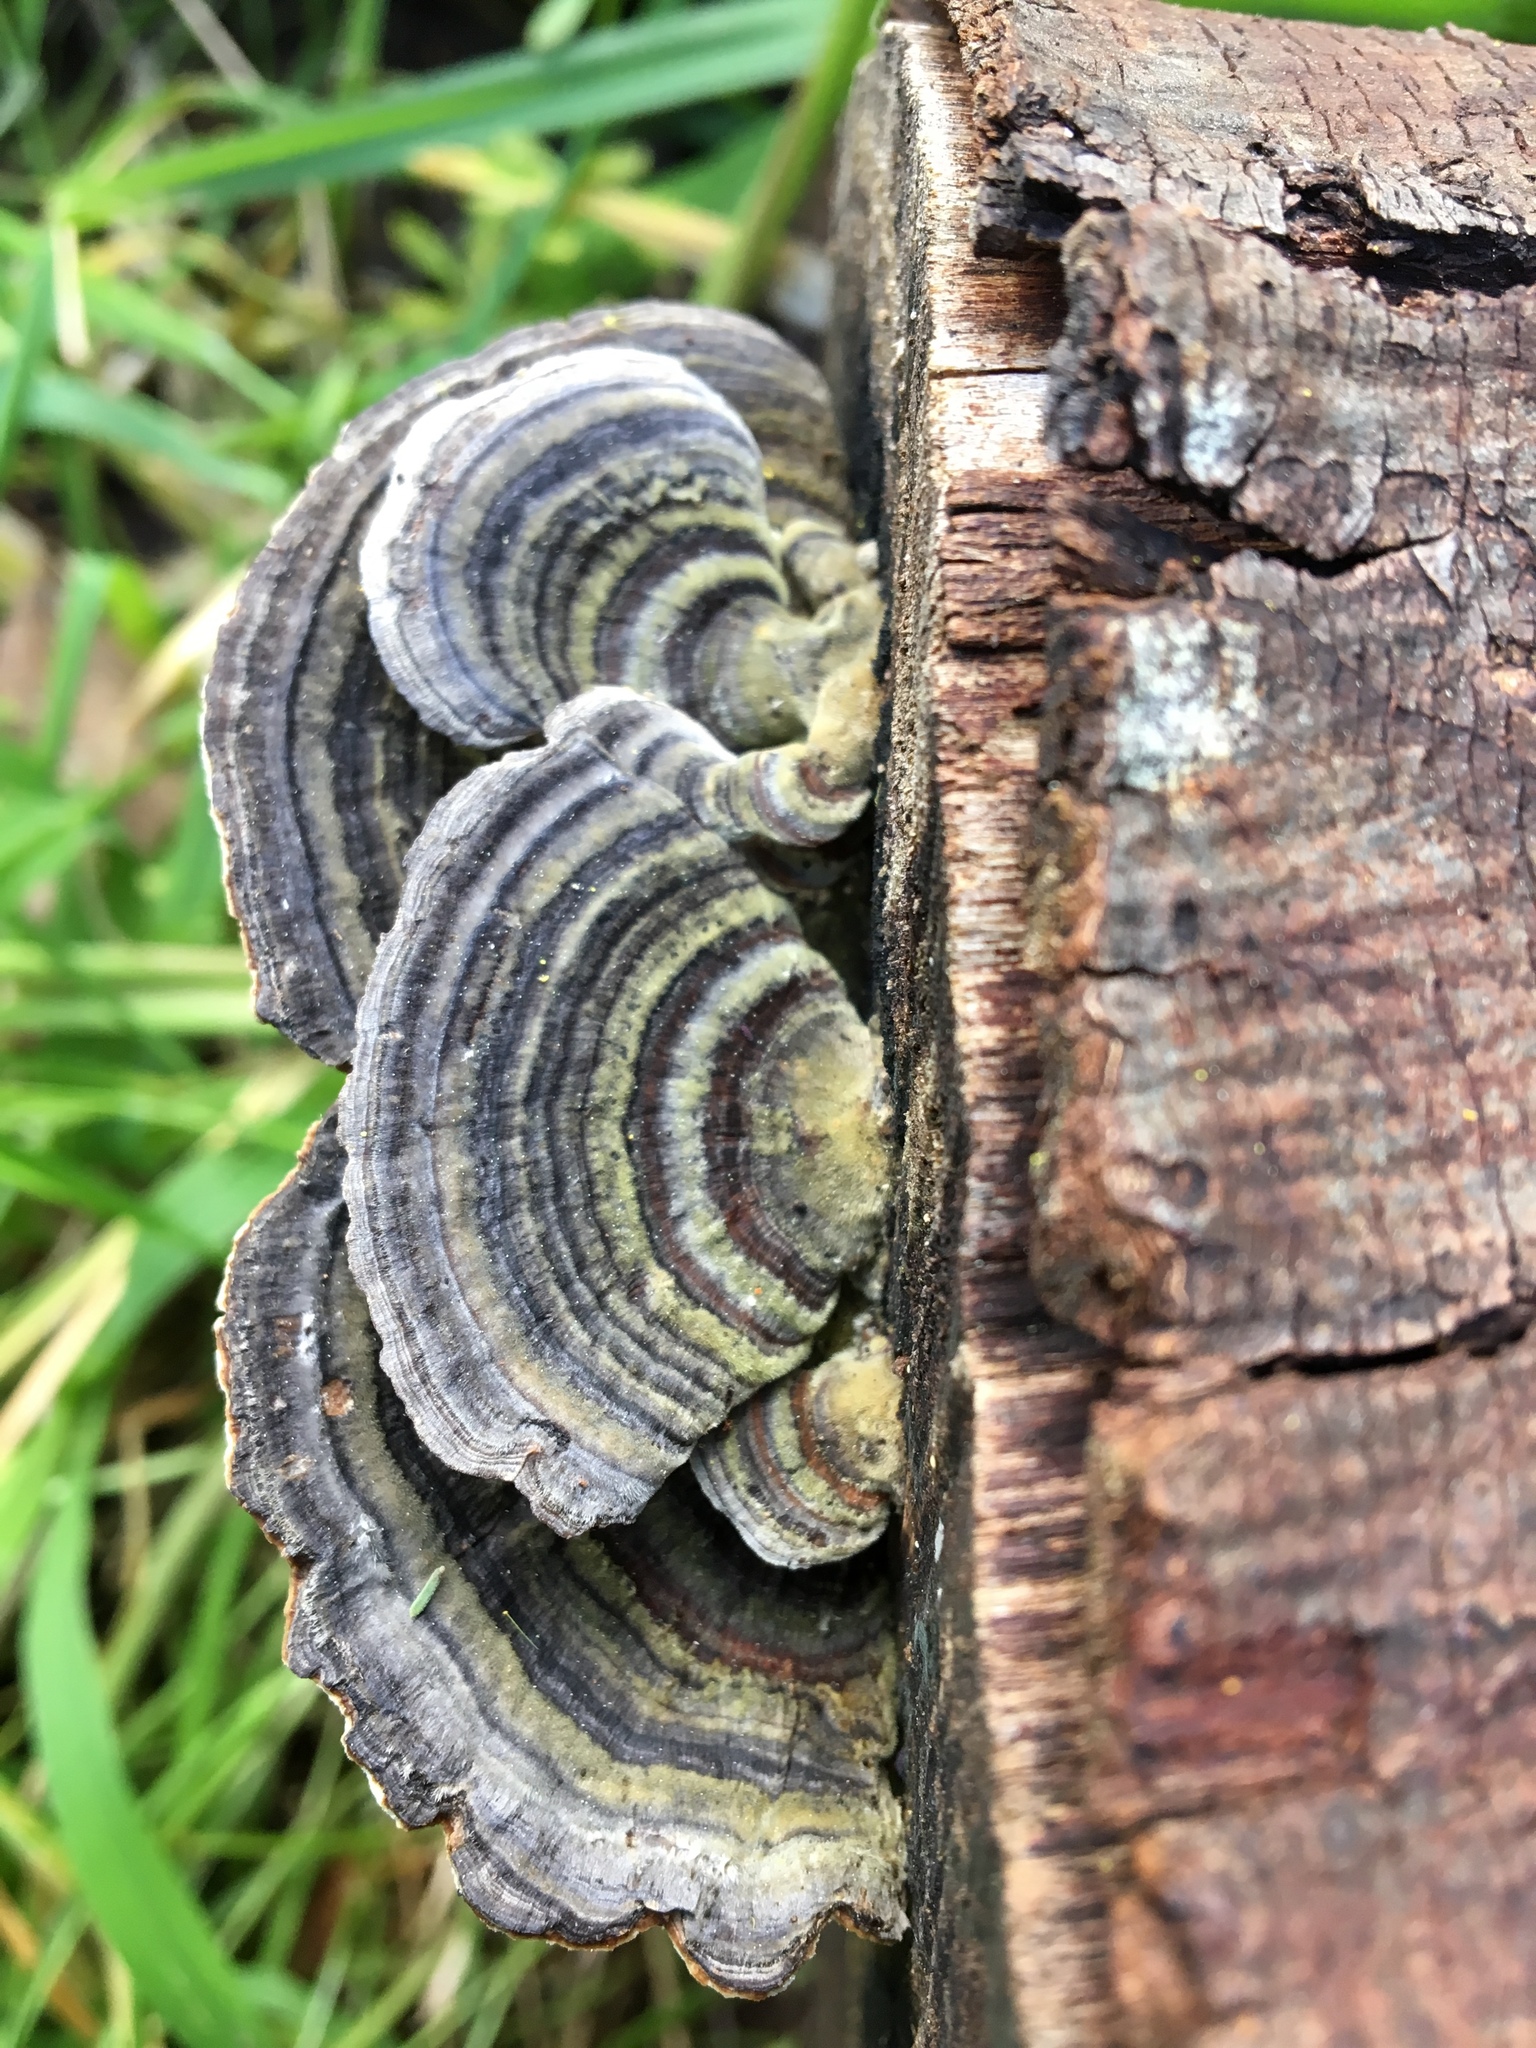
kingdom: Fungi
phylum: Basidiomycota
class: Agaricomycetes
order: Polyporales
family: Polyporaceae
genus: Trametes
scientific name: Trametes versicolor
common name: Turkeytail
